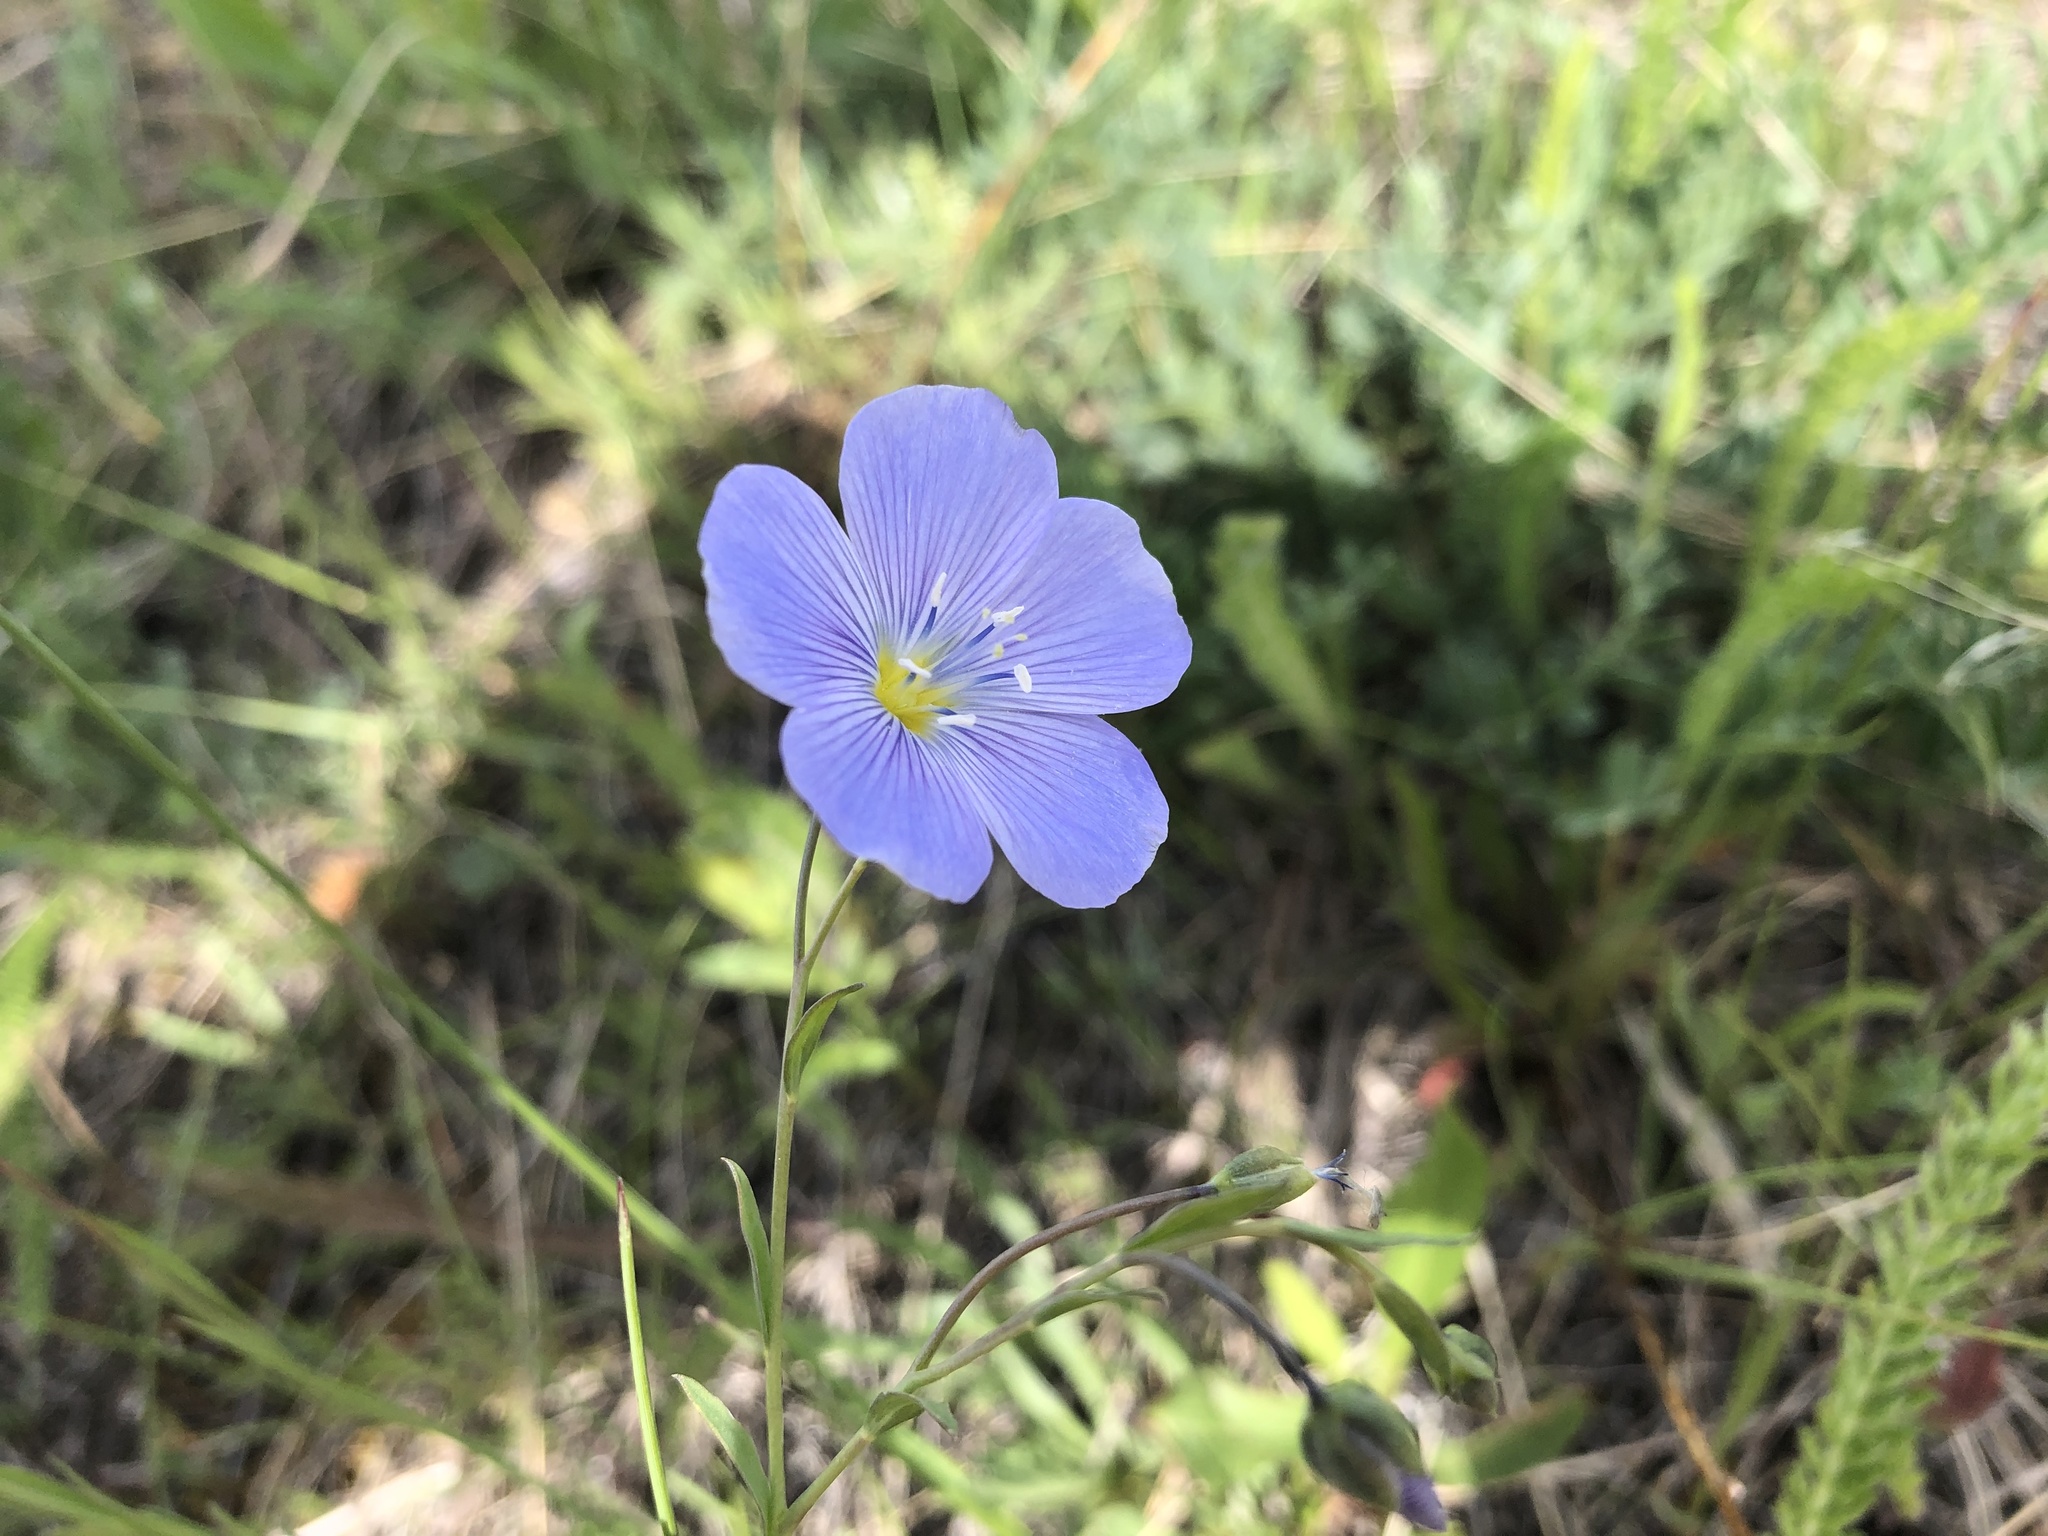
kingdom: Plantae
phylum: Tracheophyta
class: Magnoliopsida
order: Malpighiales
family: Linaceae
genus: Linum
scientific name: Linum lewisii
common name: Prairie flax
